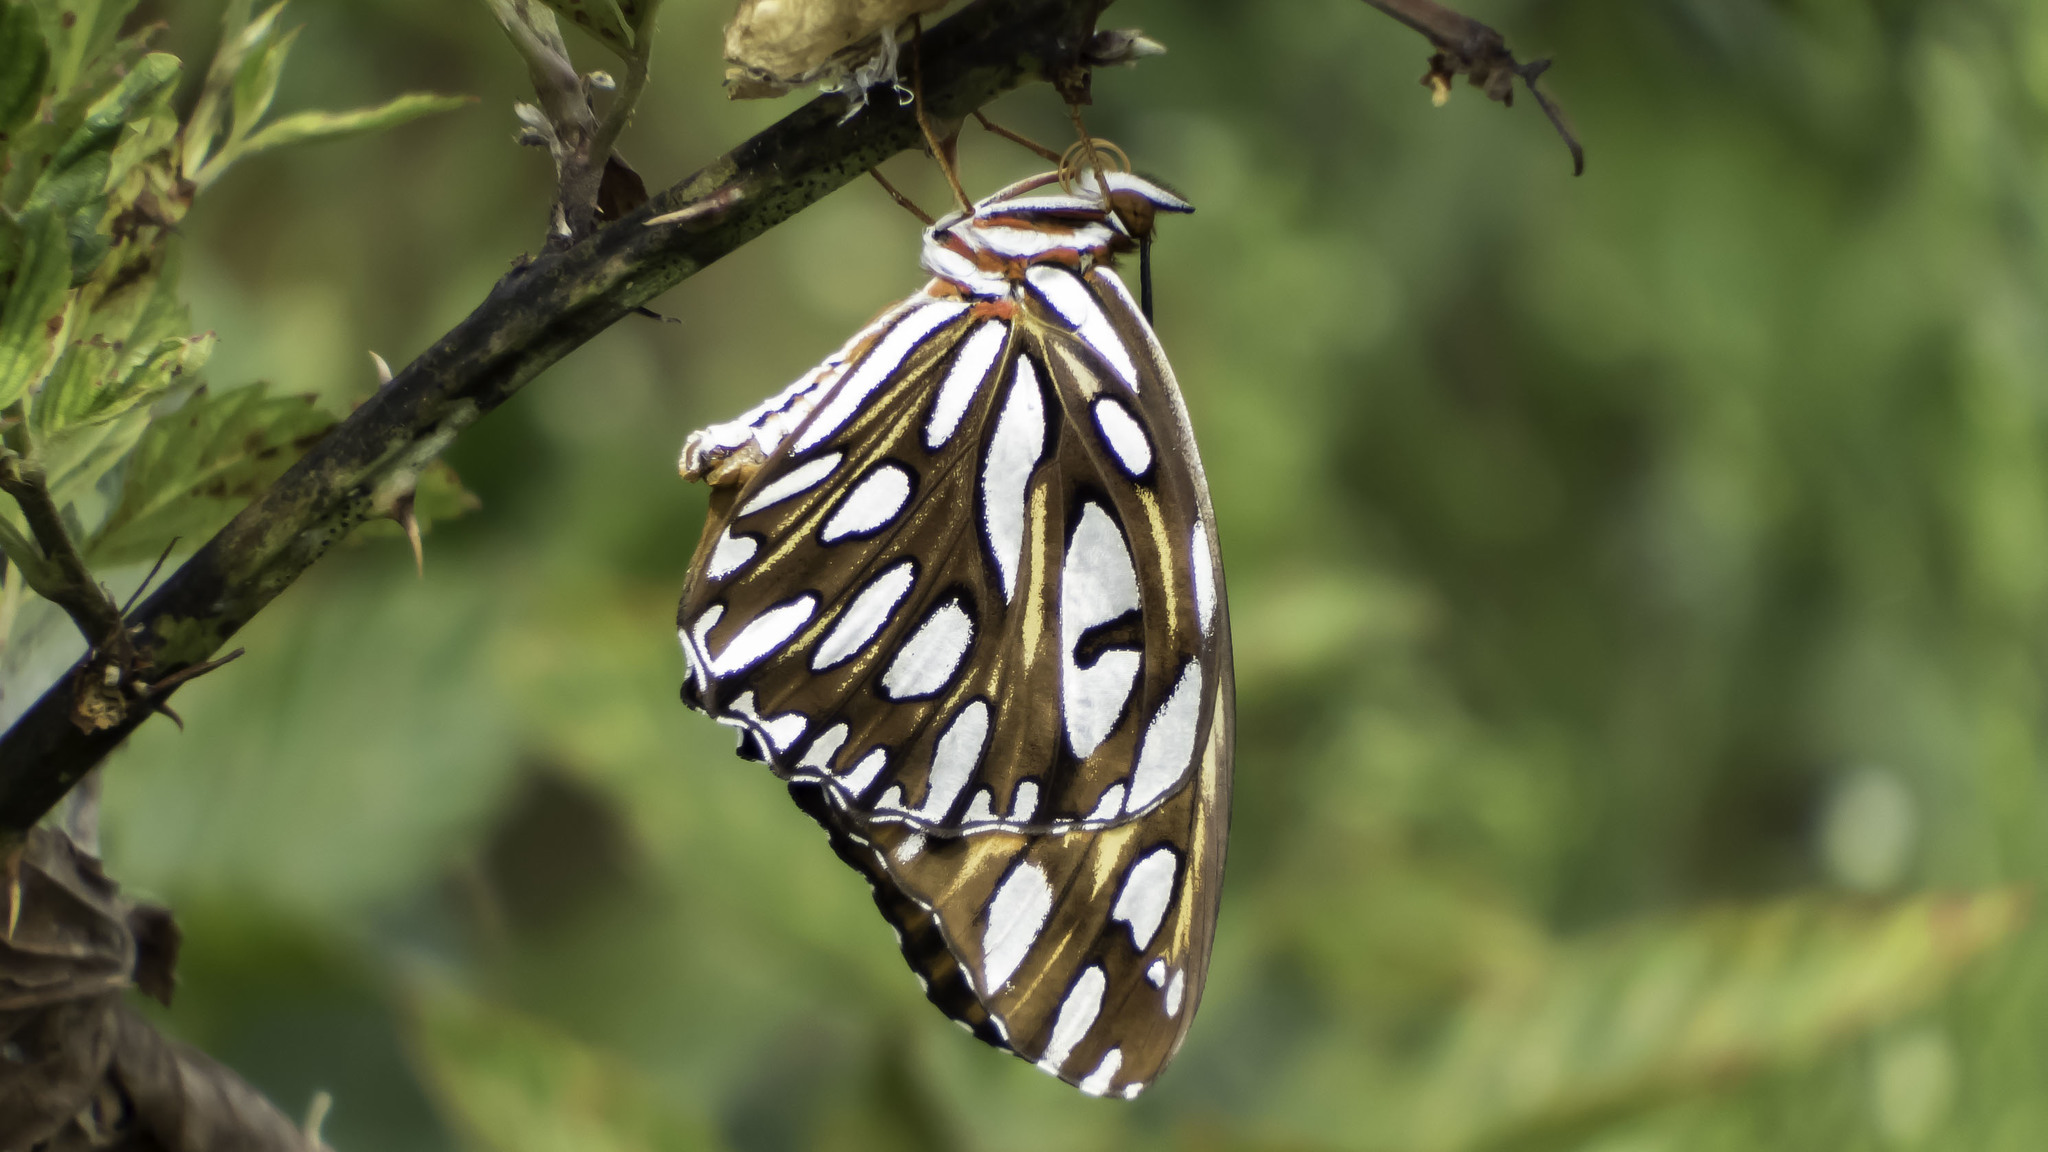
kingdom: Animalia
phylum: Arthropoda
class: Insecta
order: Lepidoptera
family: Nymphalidae
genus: Dione
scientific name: Dione vanillae
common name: Gulf fritillary
